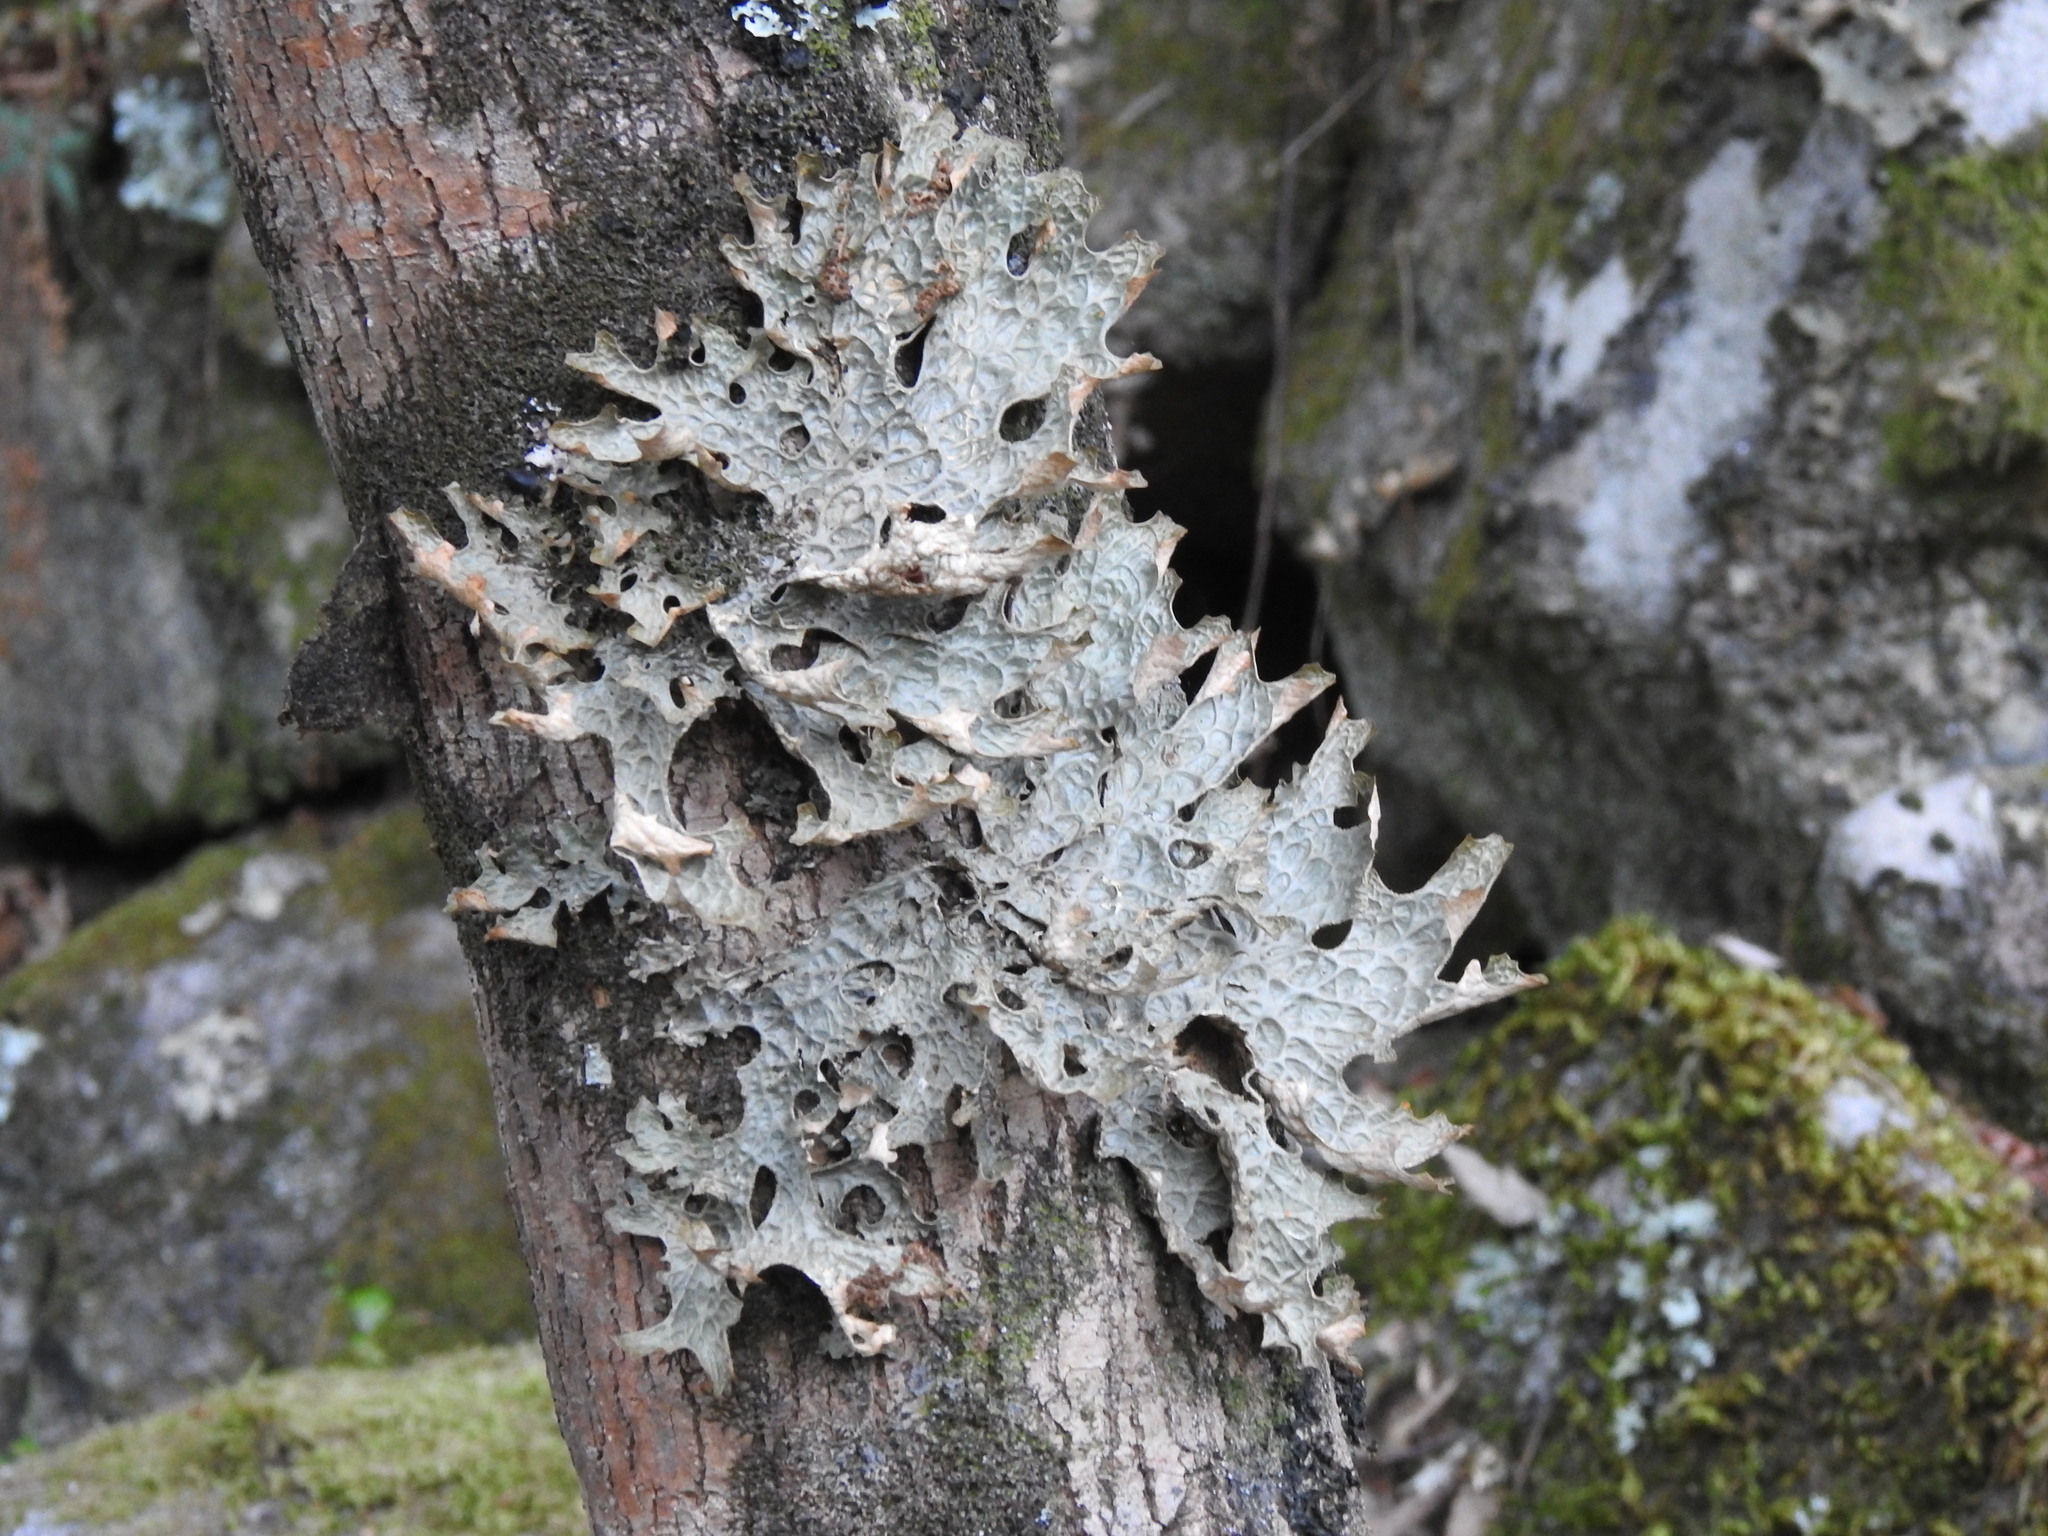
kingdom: Fungi
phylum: Ascomycota
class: Lecanoromycetes
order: Peltigerales
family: Lobariaceae
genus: Lobaria
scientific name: Lobaria pulmonaria
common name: Lungwort
